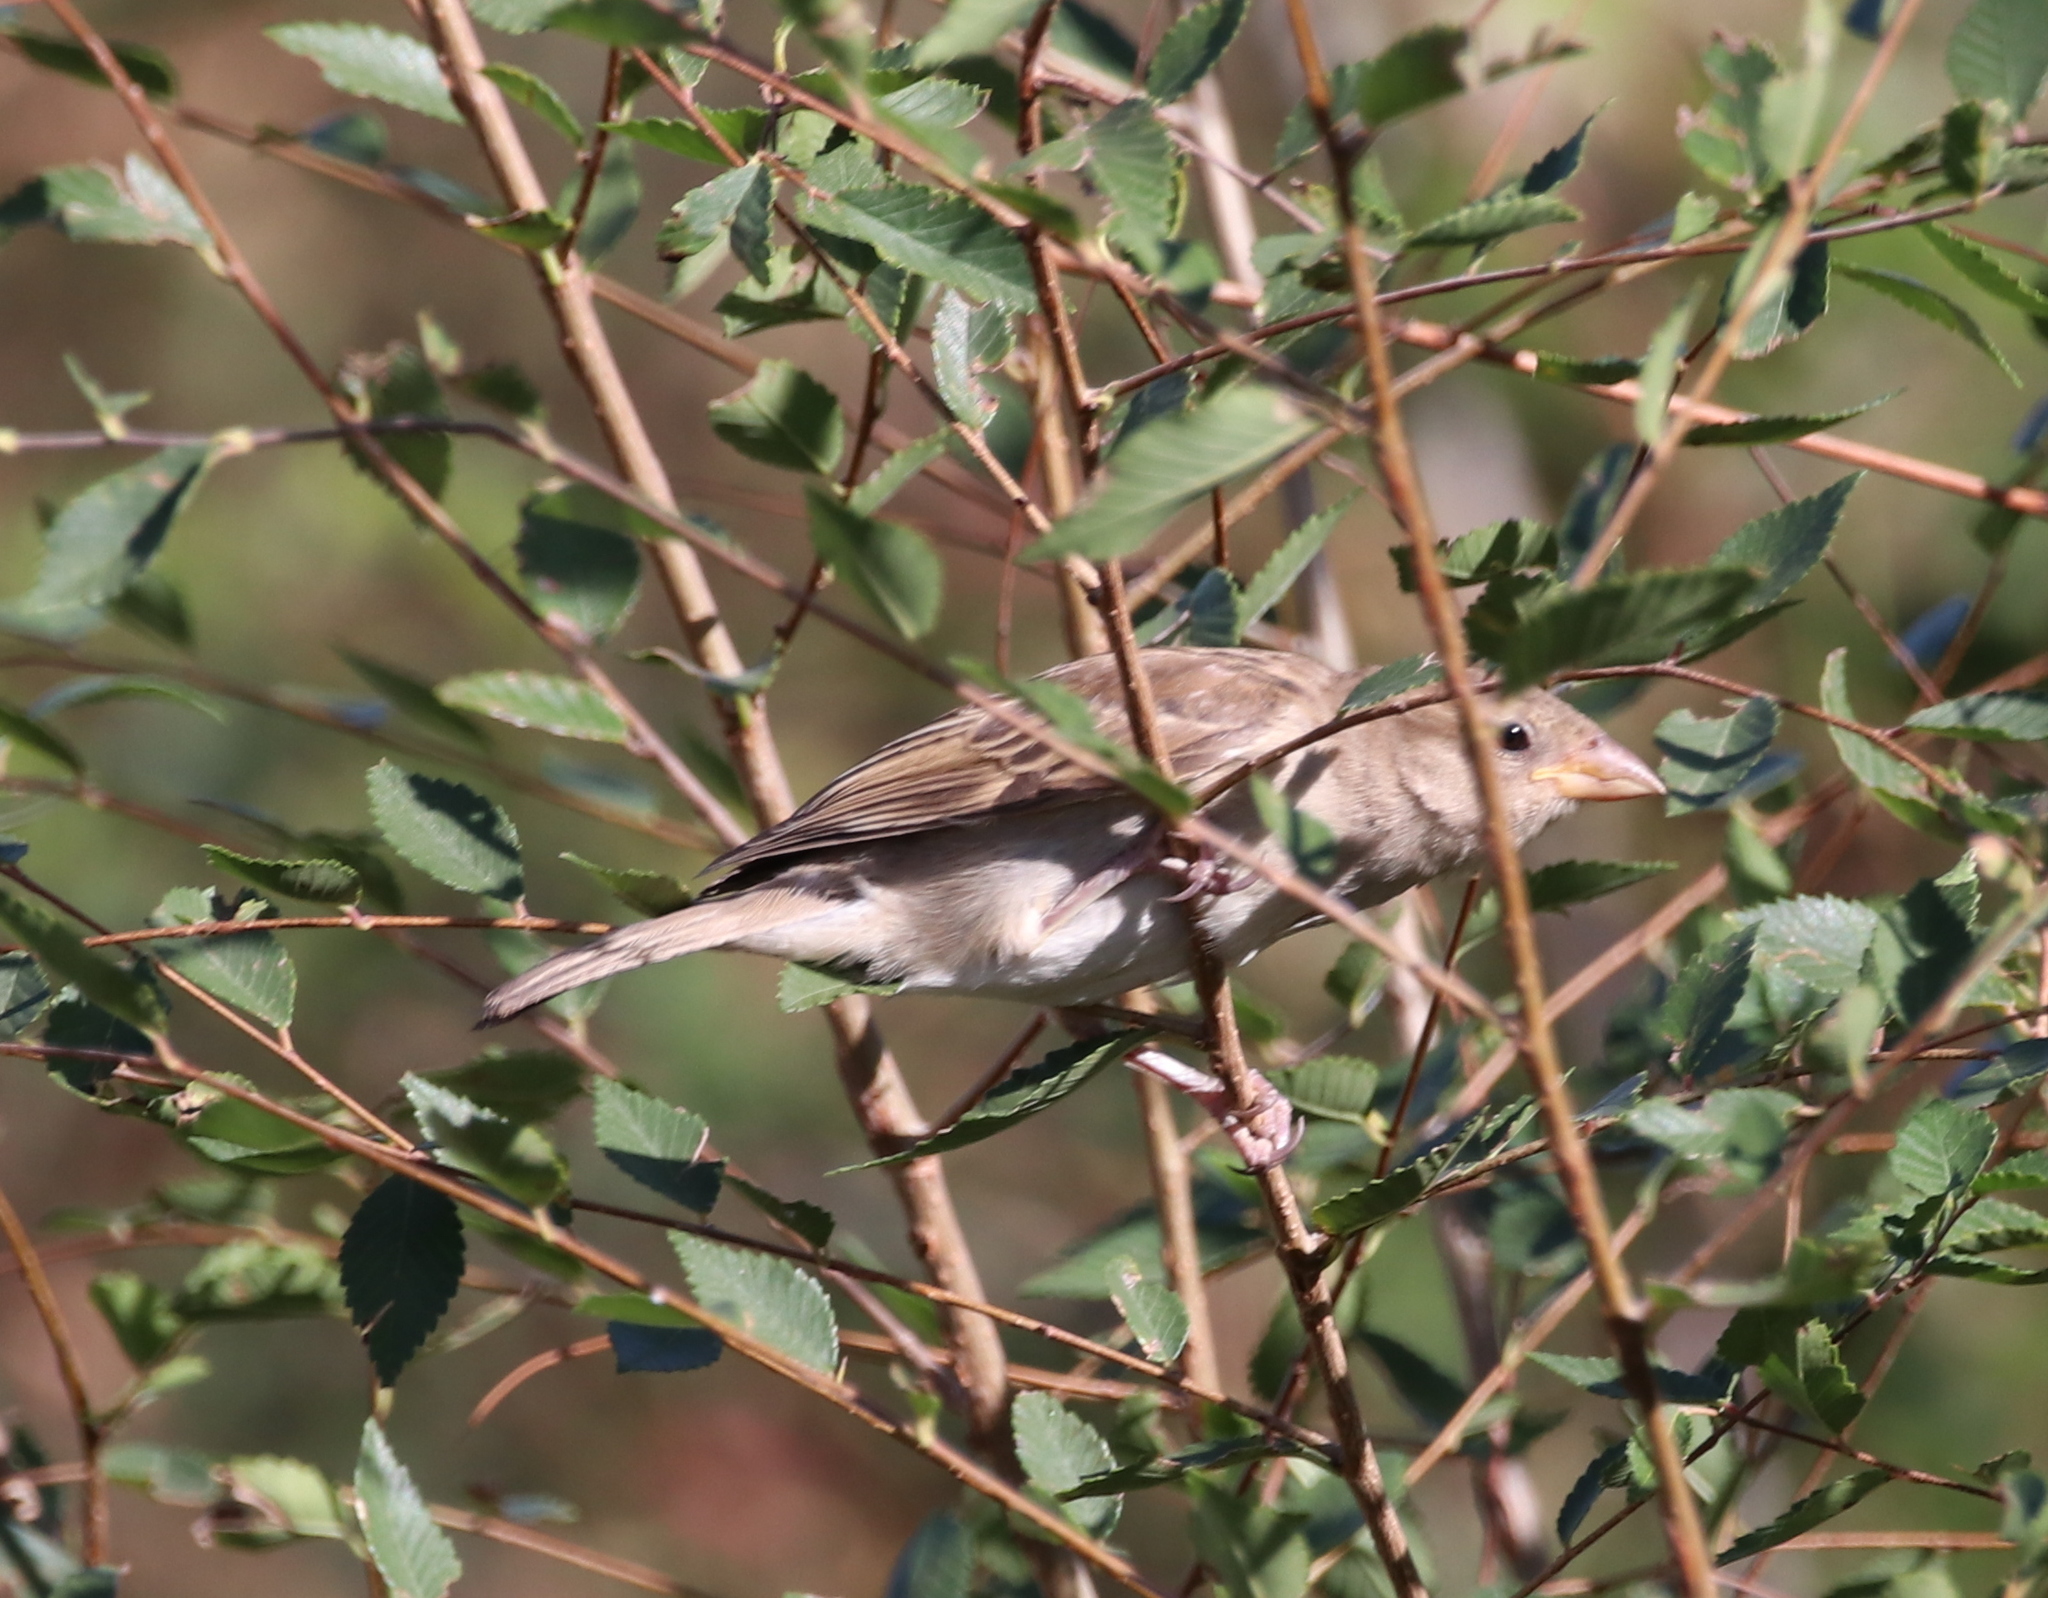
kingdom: Animalia
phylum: Chordata
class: Aves
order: Passeriformes
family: Passeridae
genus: Passer
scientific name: Passer domesticus
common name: House sparrow
